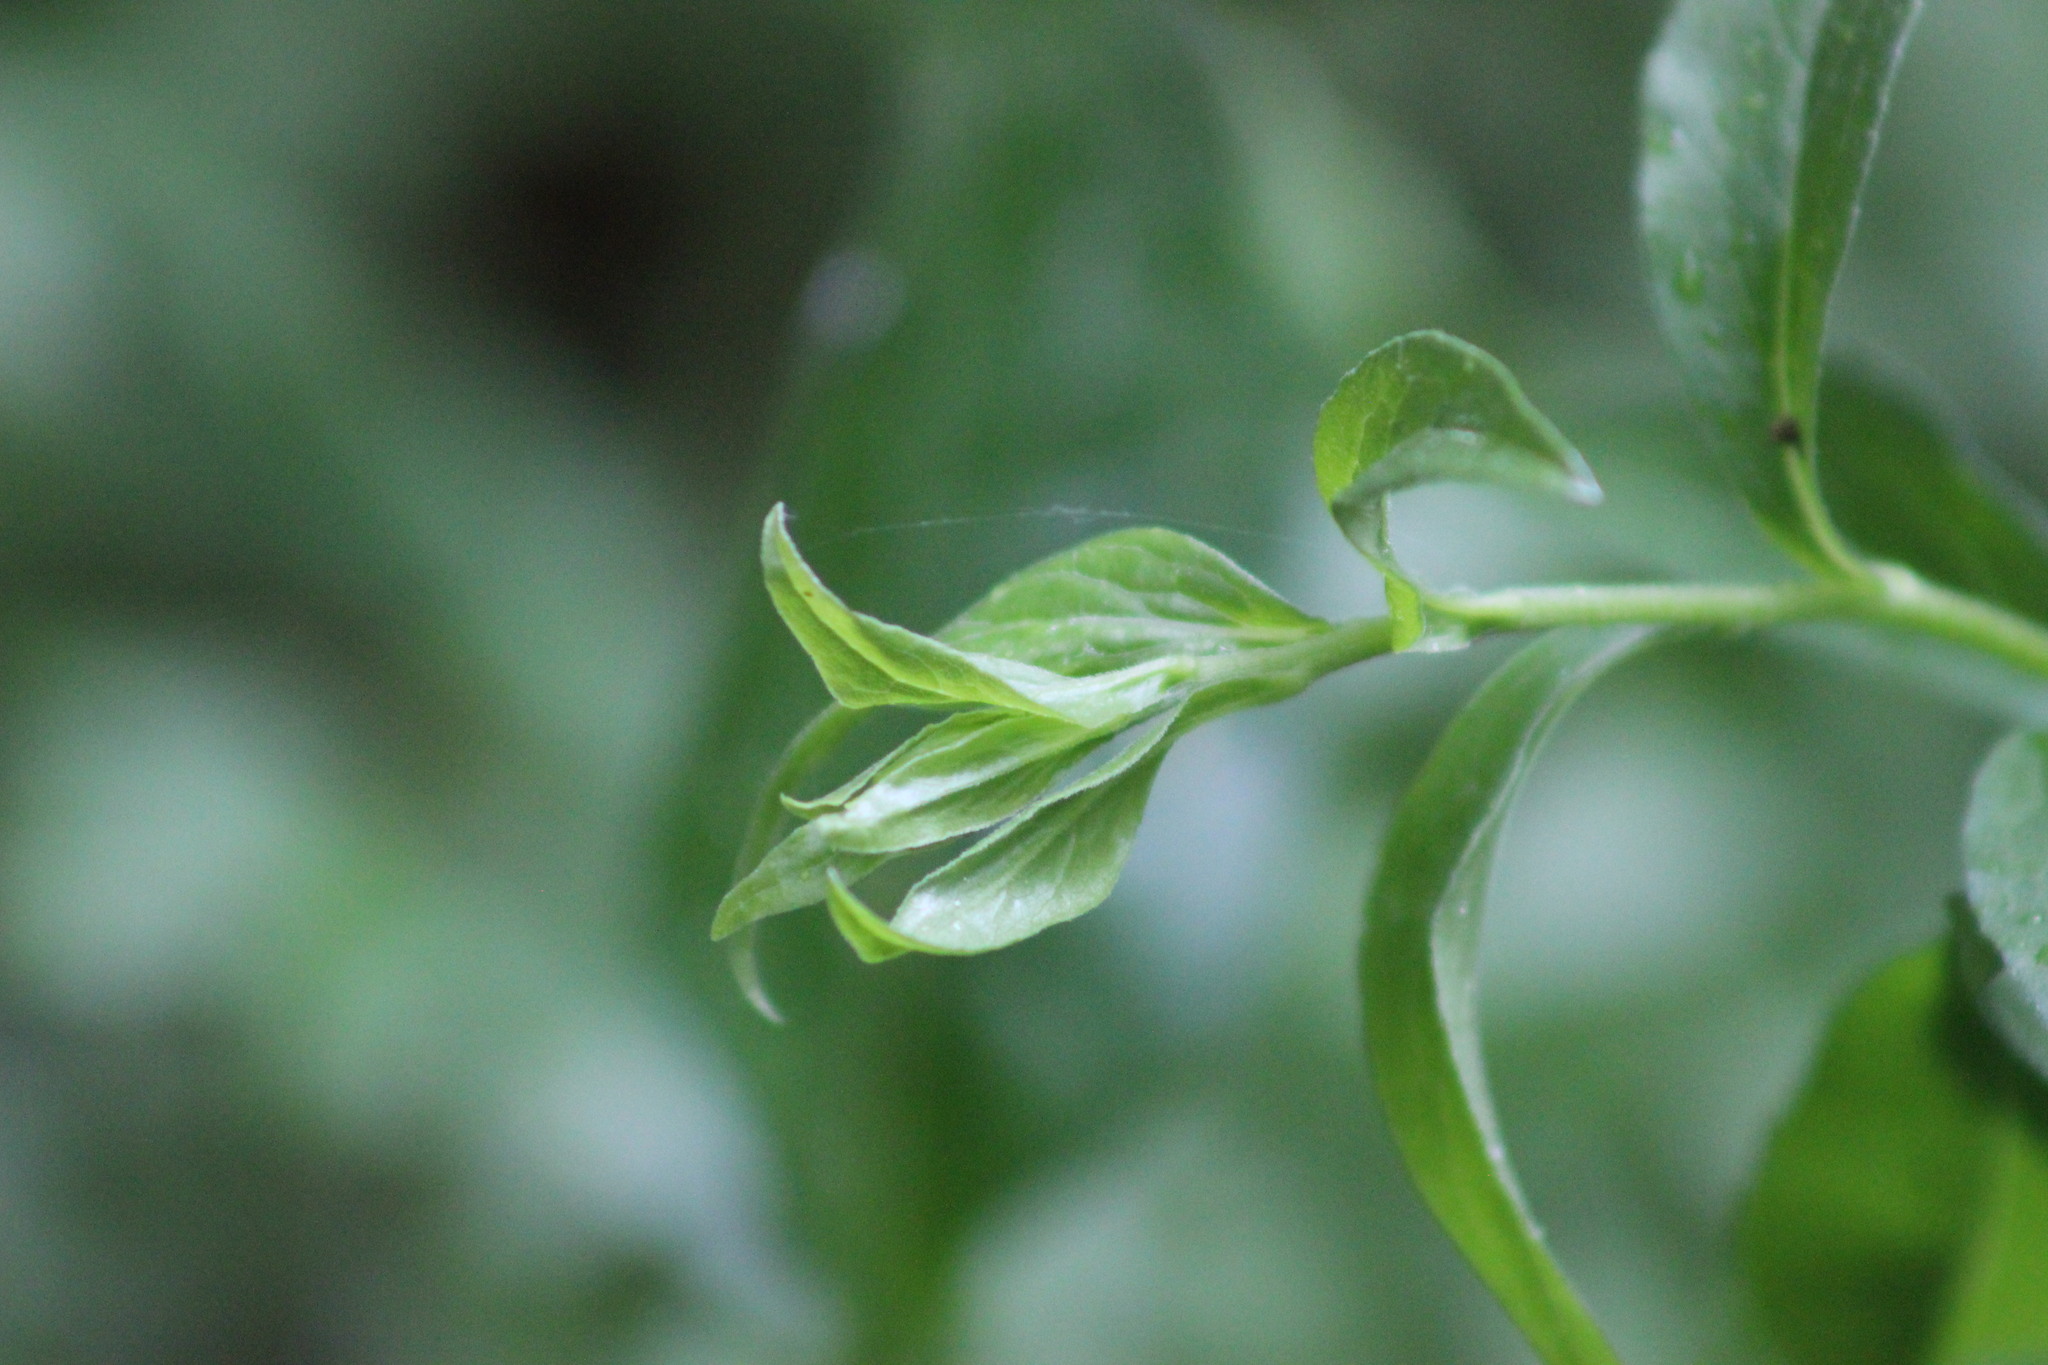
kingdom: Plantae
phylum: Tracheophyta
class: Magnoliopsida
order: Asterales
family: Asteraceae
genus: Solidago
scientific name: Solidago virgaurea
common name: Goldenrod
